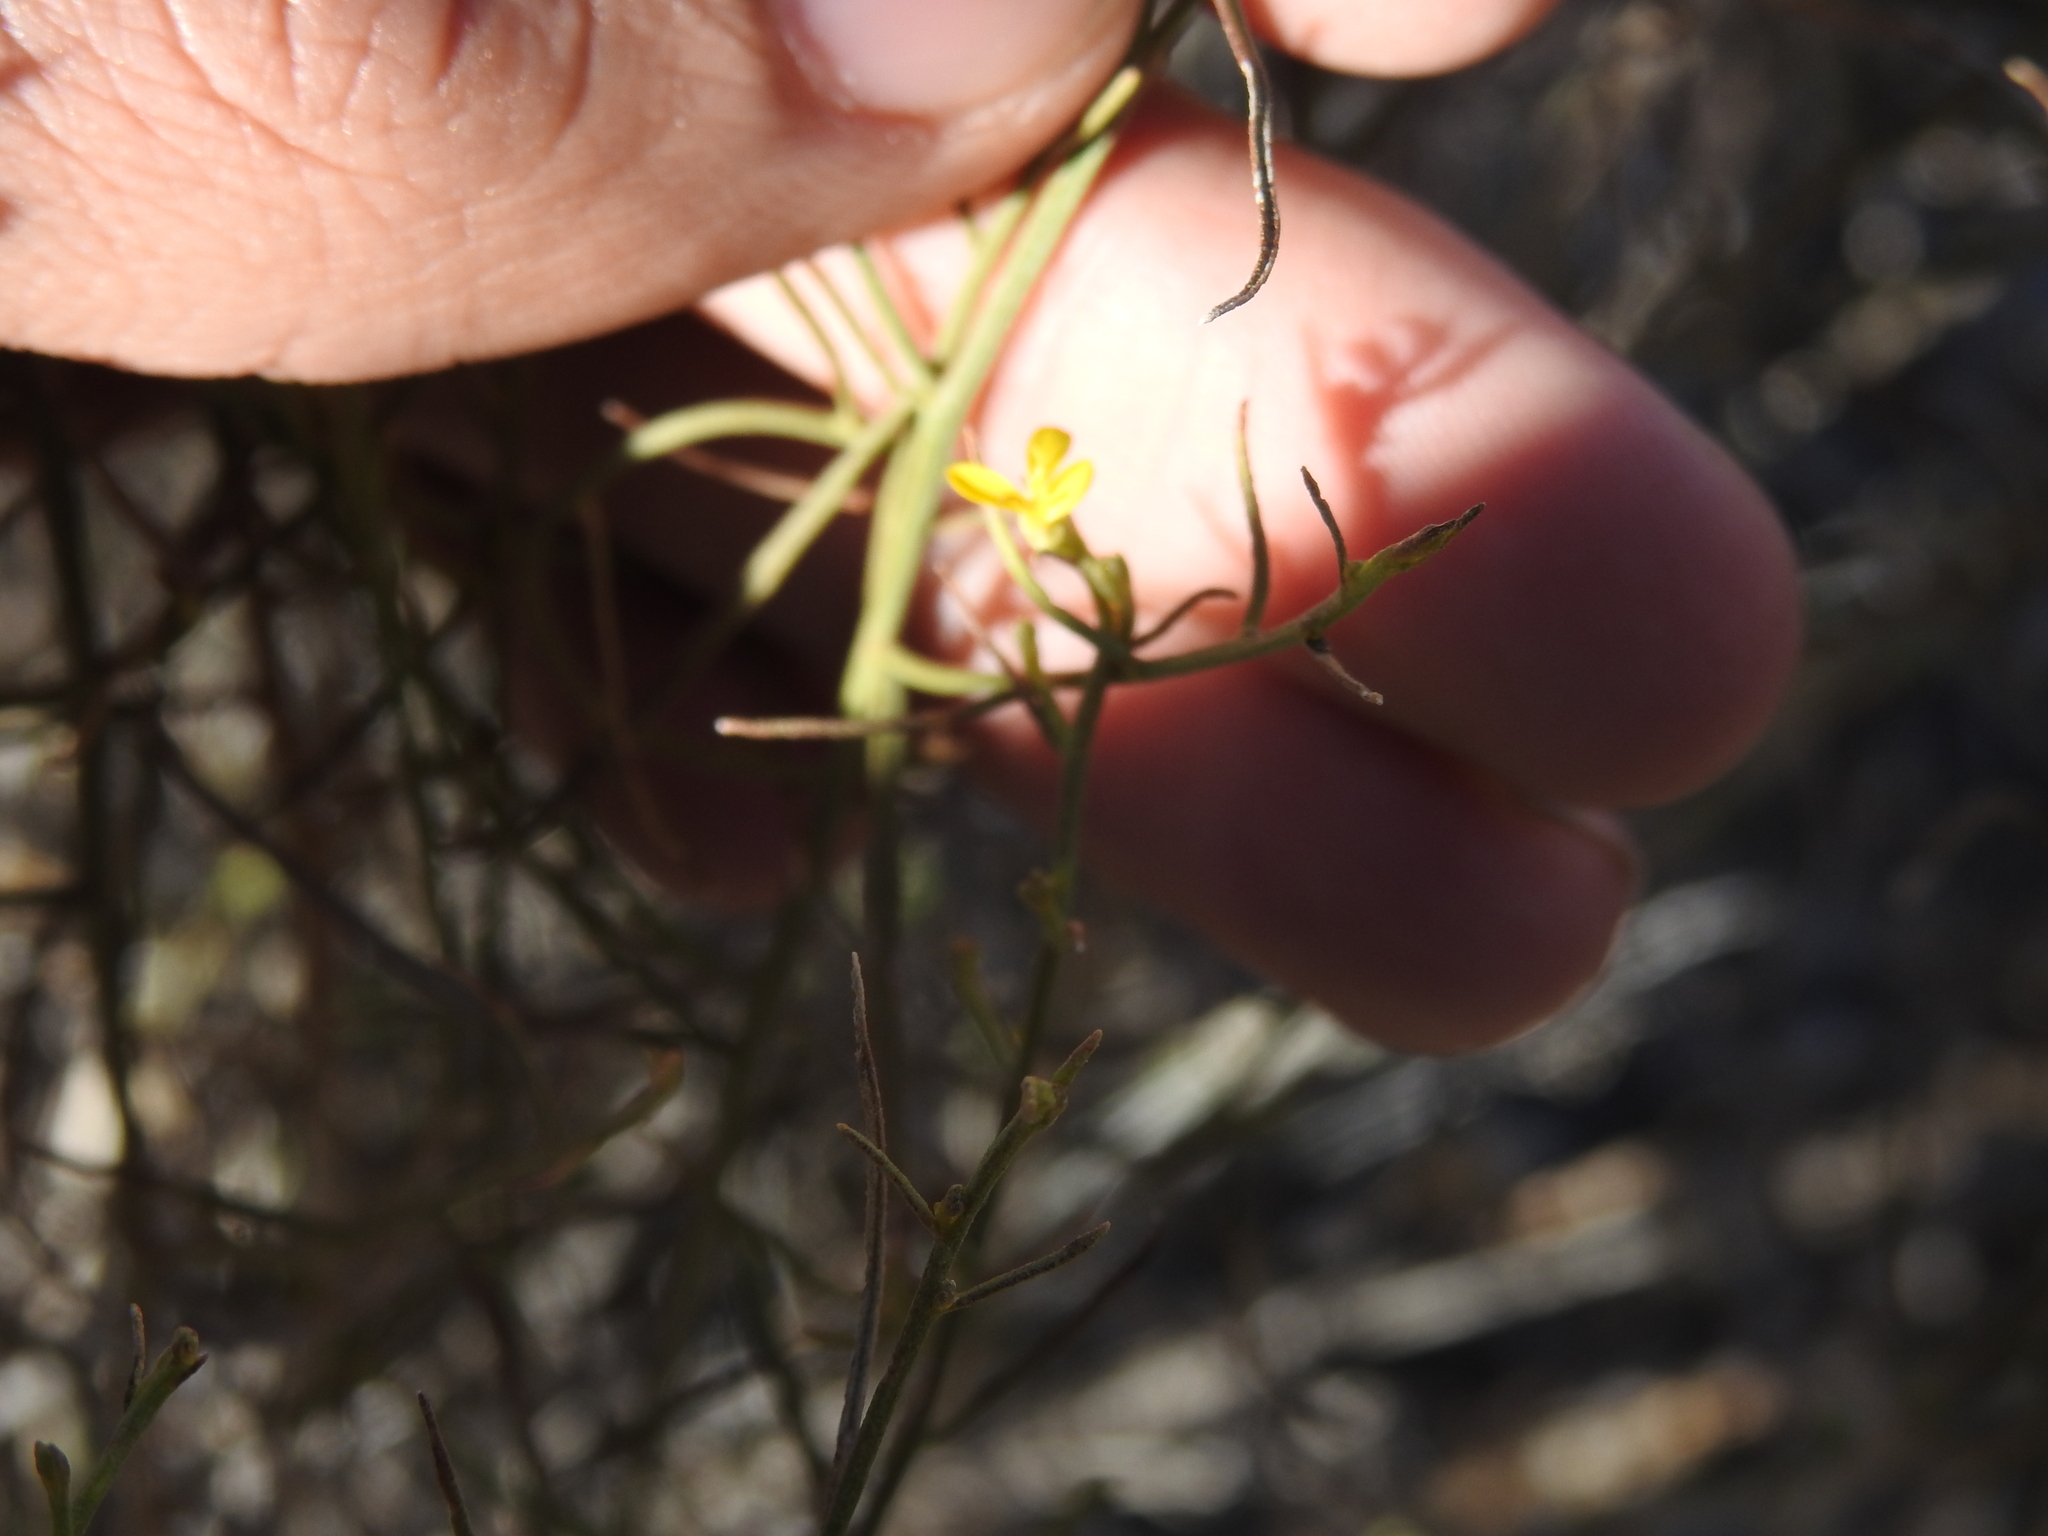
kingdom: Plantae
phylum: Tracheophyta
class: Magnoliopsida
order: Asterales
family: Asteraceae
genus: Gutierrezia
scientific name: Gutierrezia sarothrae
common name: Broom snakeweed
